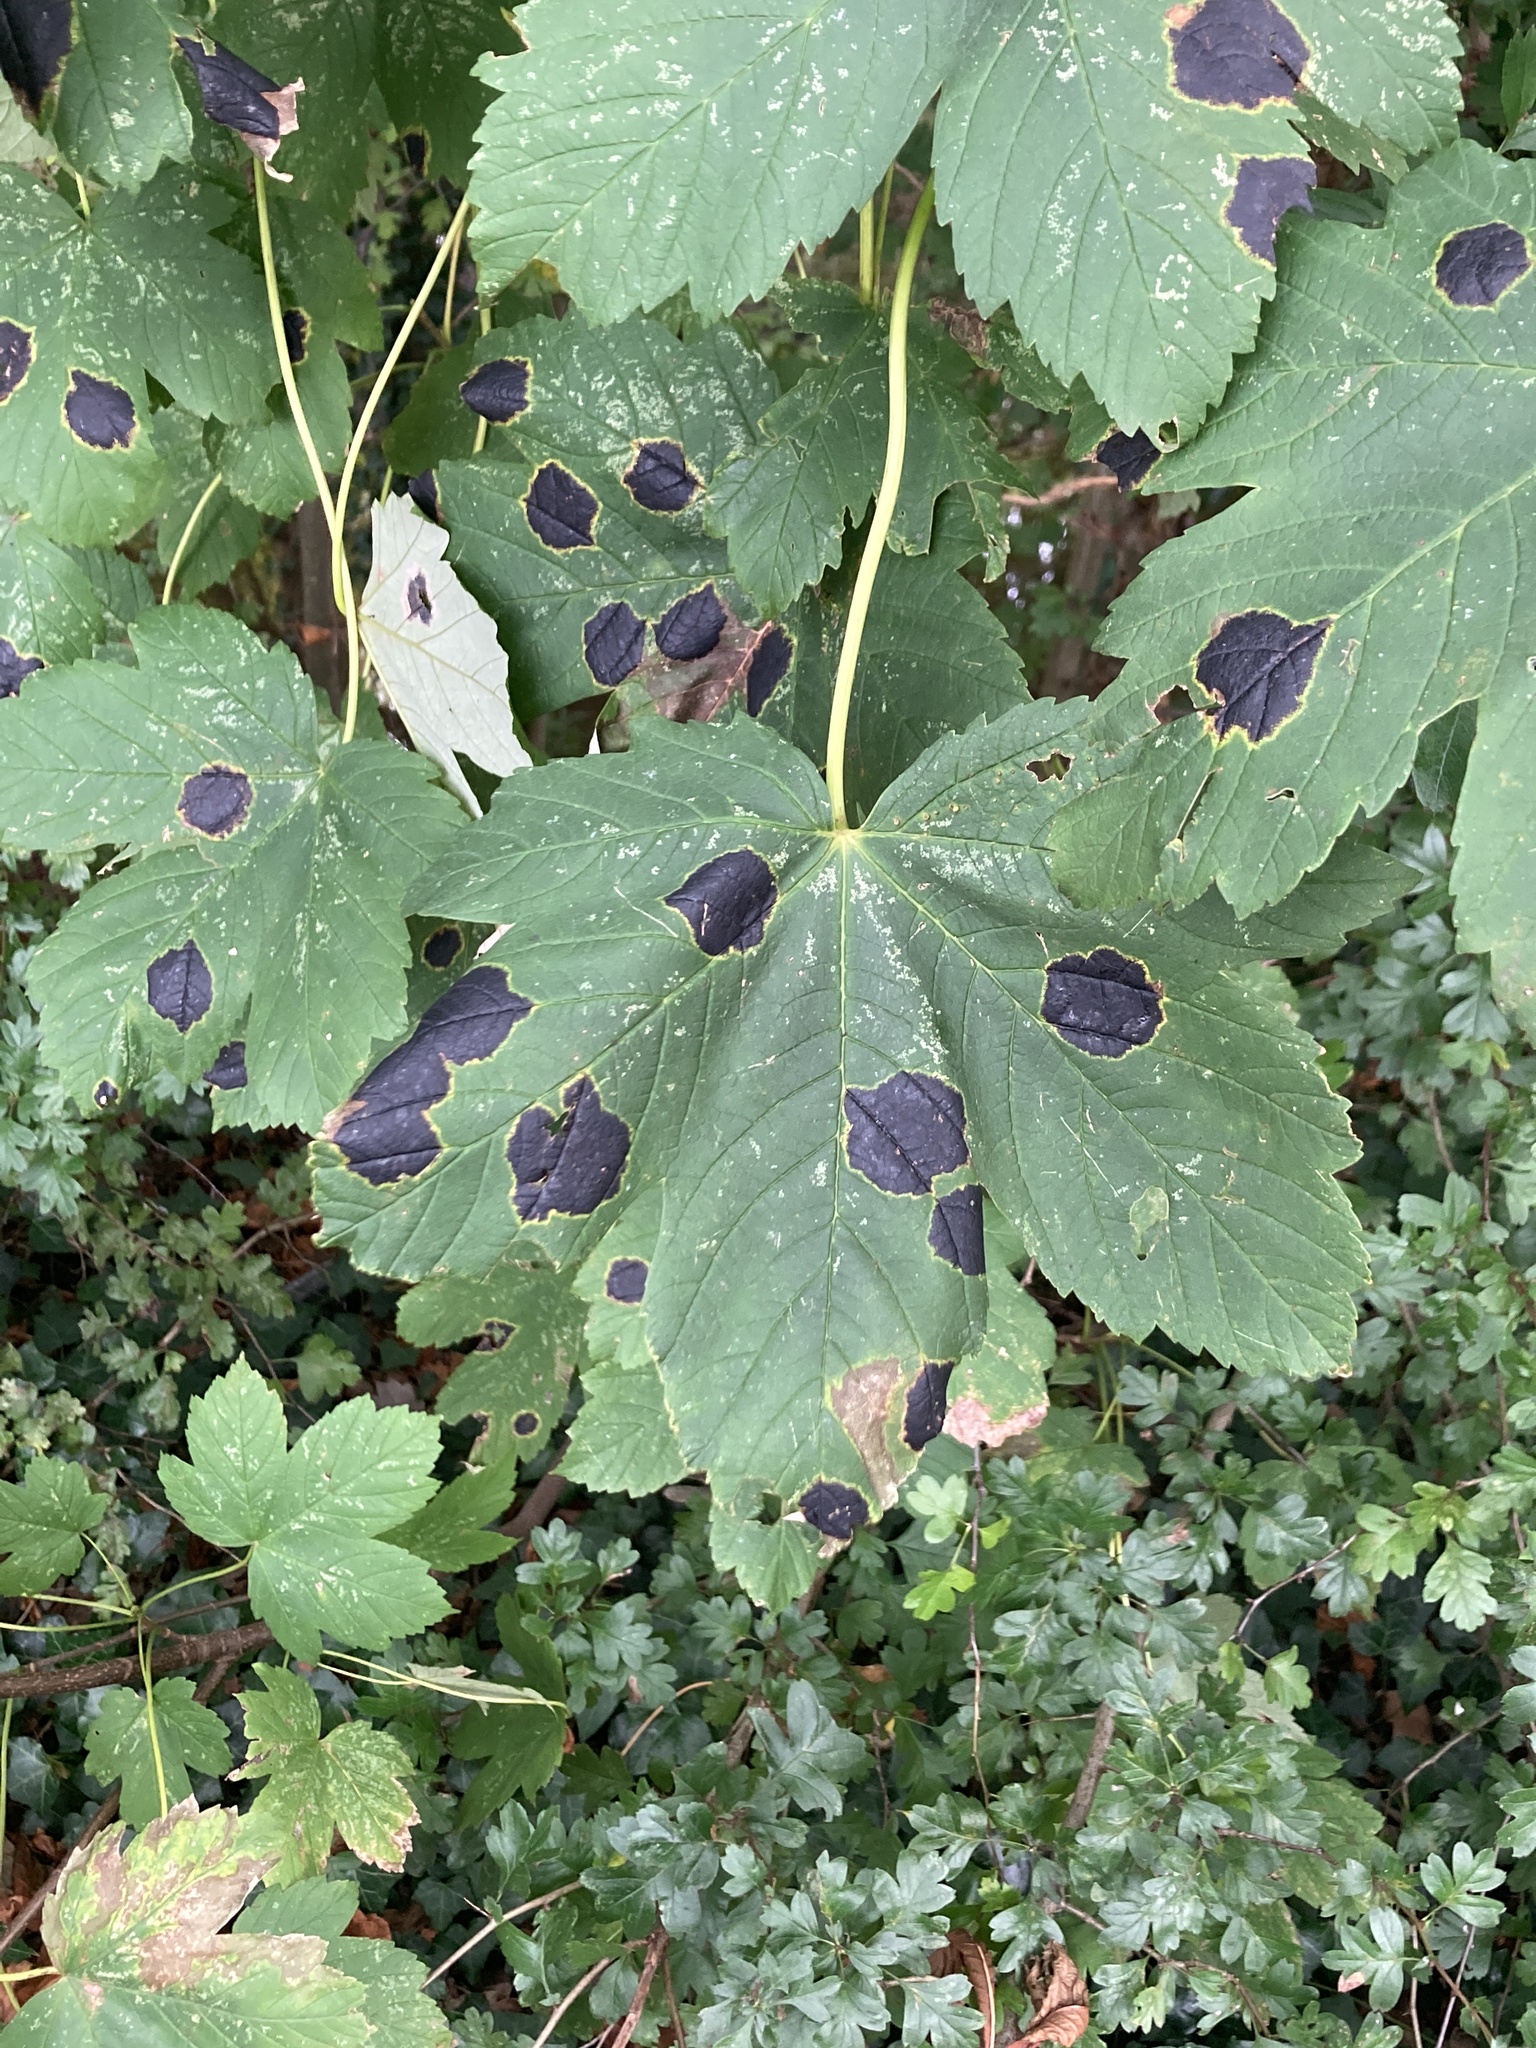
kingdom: Fungi
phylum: Ascomycota
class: Leotiomycetes
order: Rhytismatales
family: Rhytismataceae
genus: Rhytisma
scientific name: Rhytisma acerinum
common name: European tar spot
